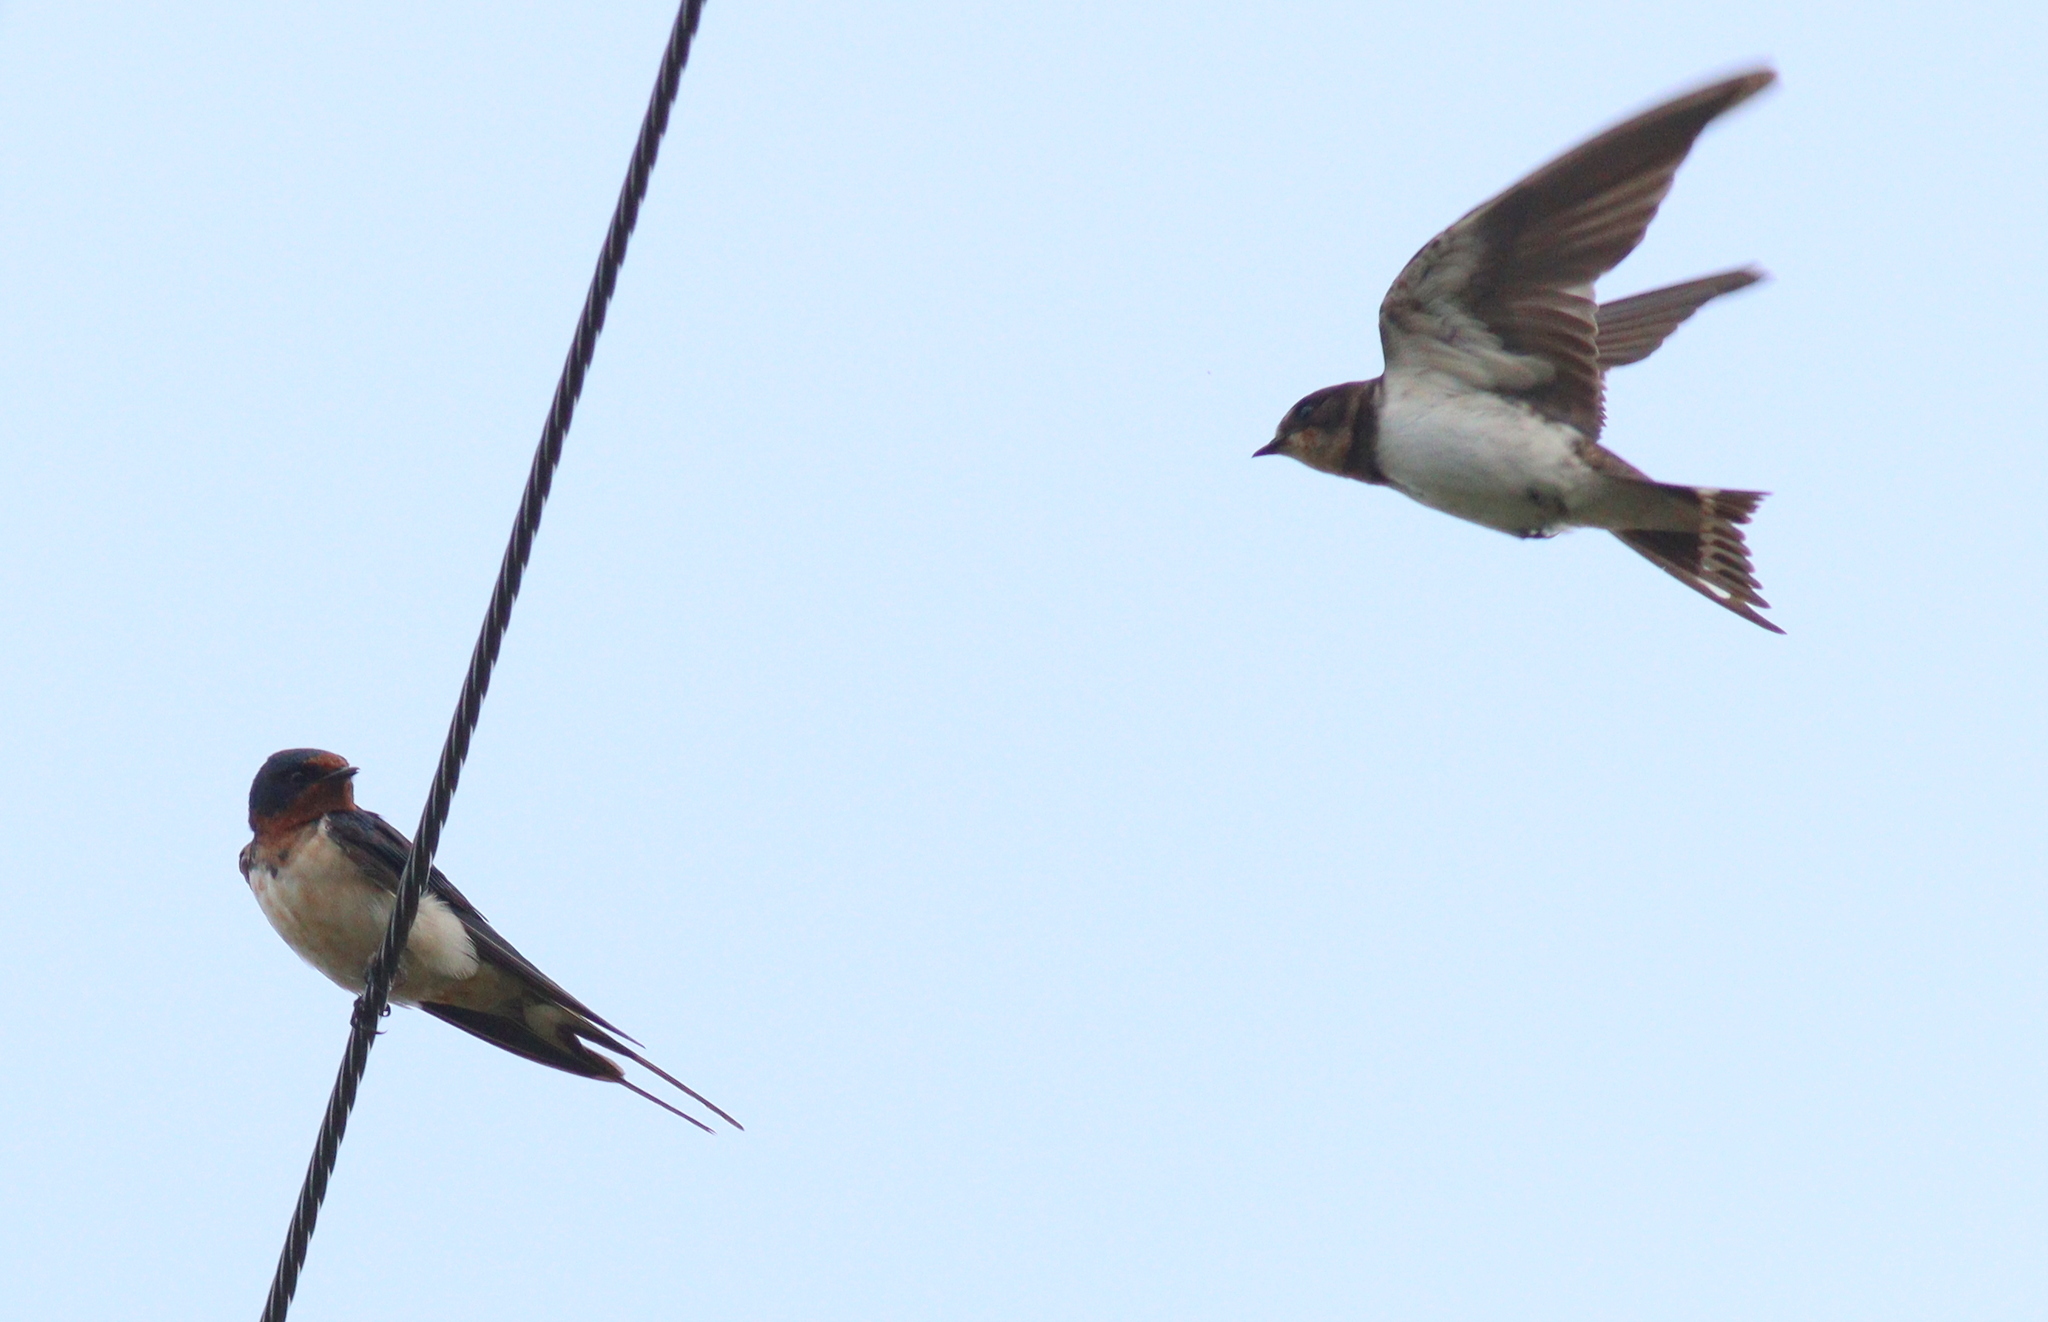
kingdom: Animalia
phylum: Chordata
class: Aves
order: Passeriformes
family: Hirundinidae
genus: Hirundo
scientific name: Hirundo rustica
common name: Barn swallow
